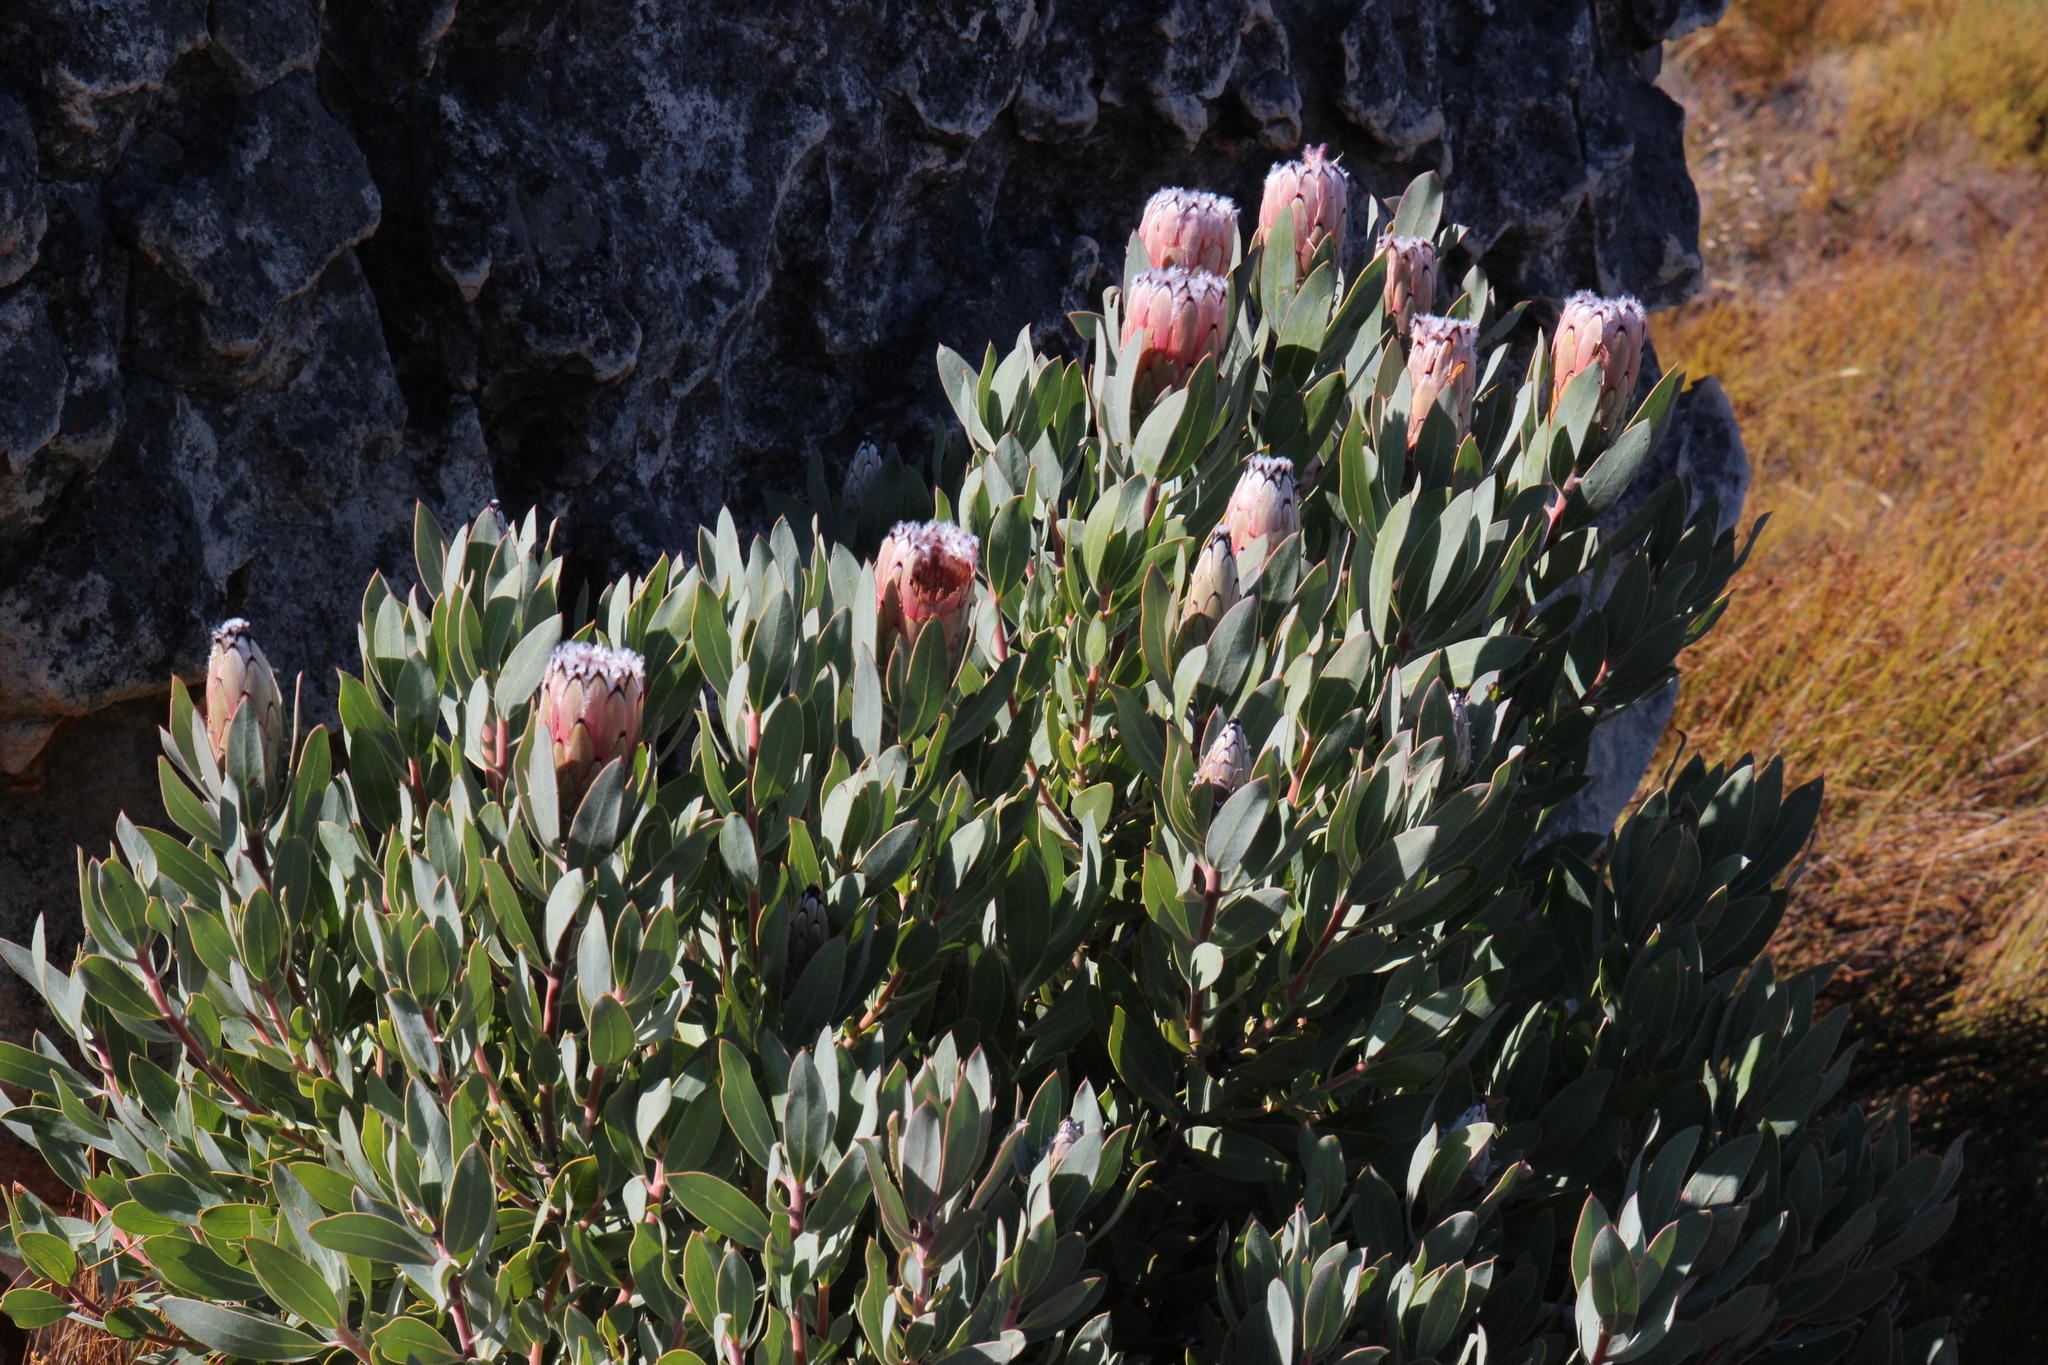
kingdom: Plantae
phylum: Tracheophyta
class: Magnoliopsida
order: Proteales
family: Proteaceae
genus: Protea
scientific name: Protea laurifolia
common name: Grey-leaf sugarbsh
